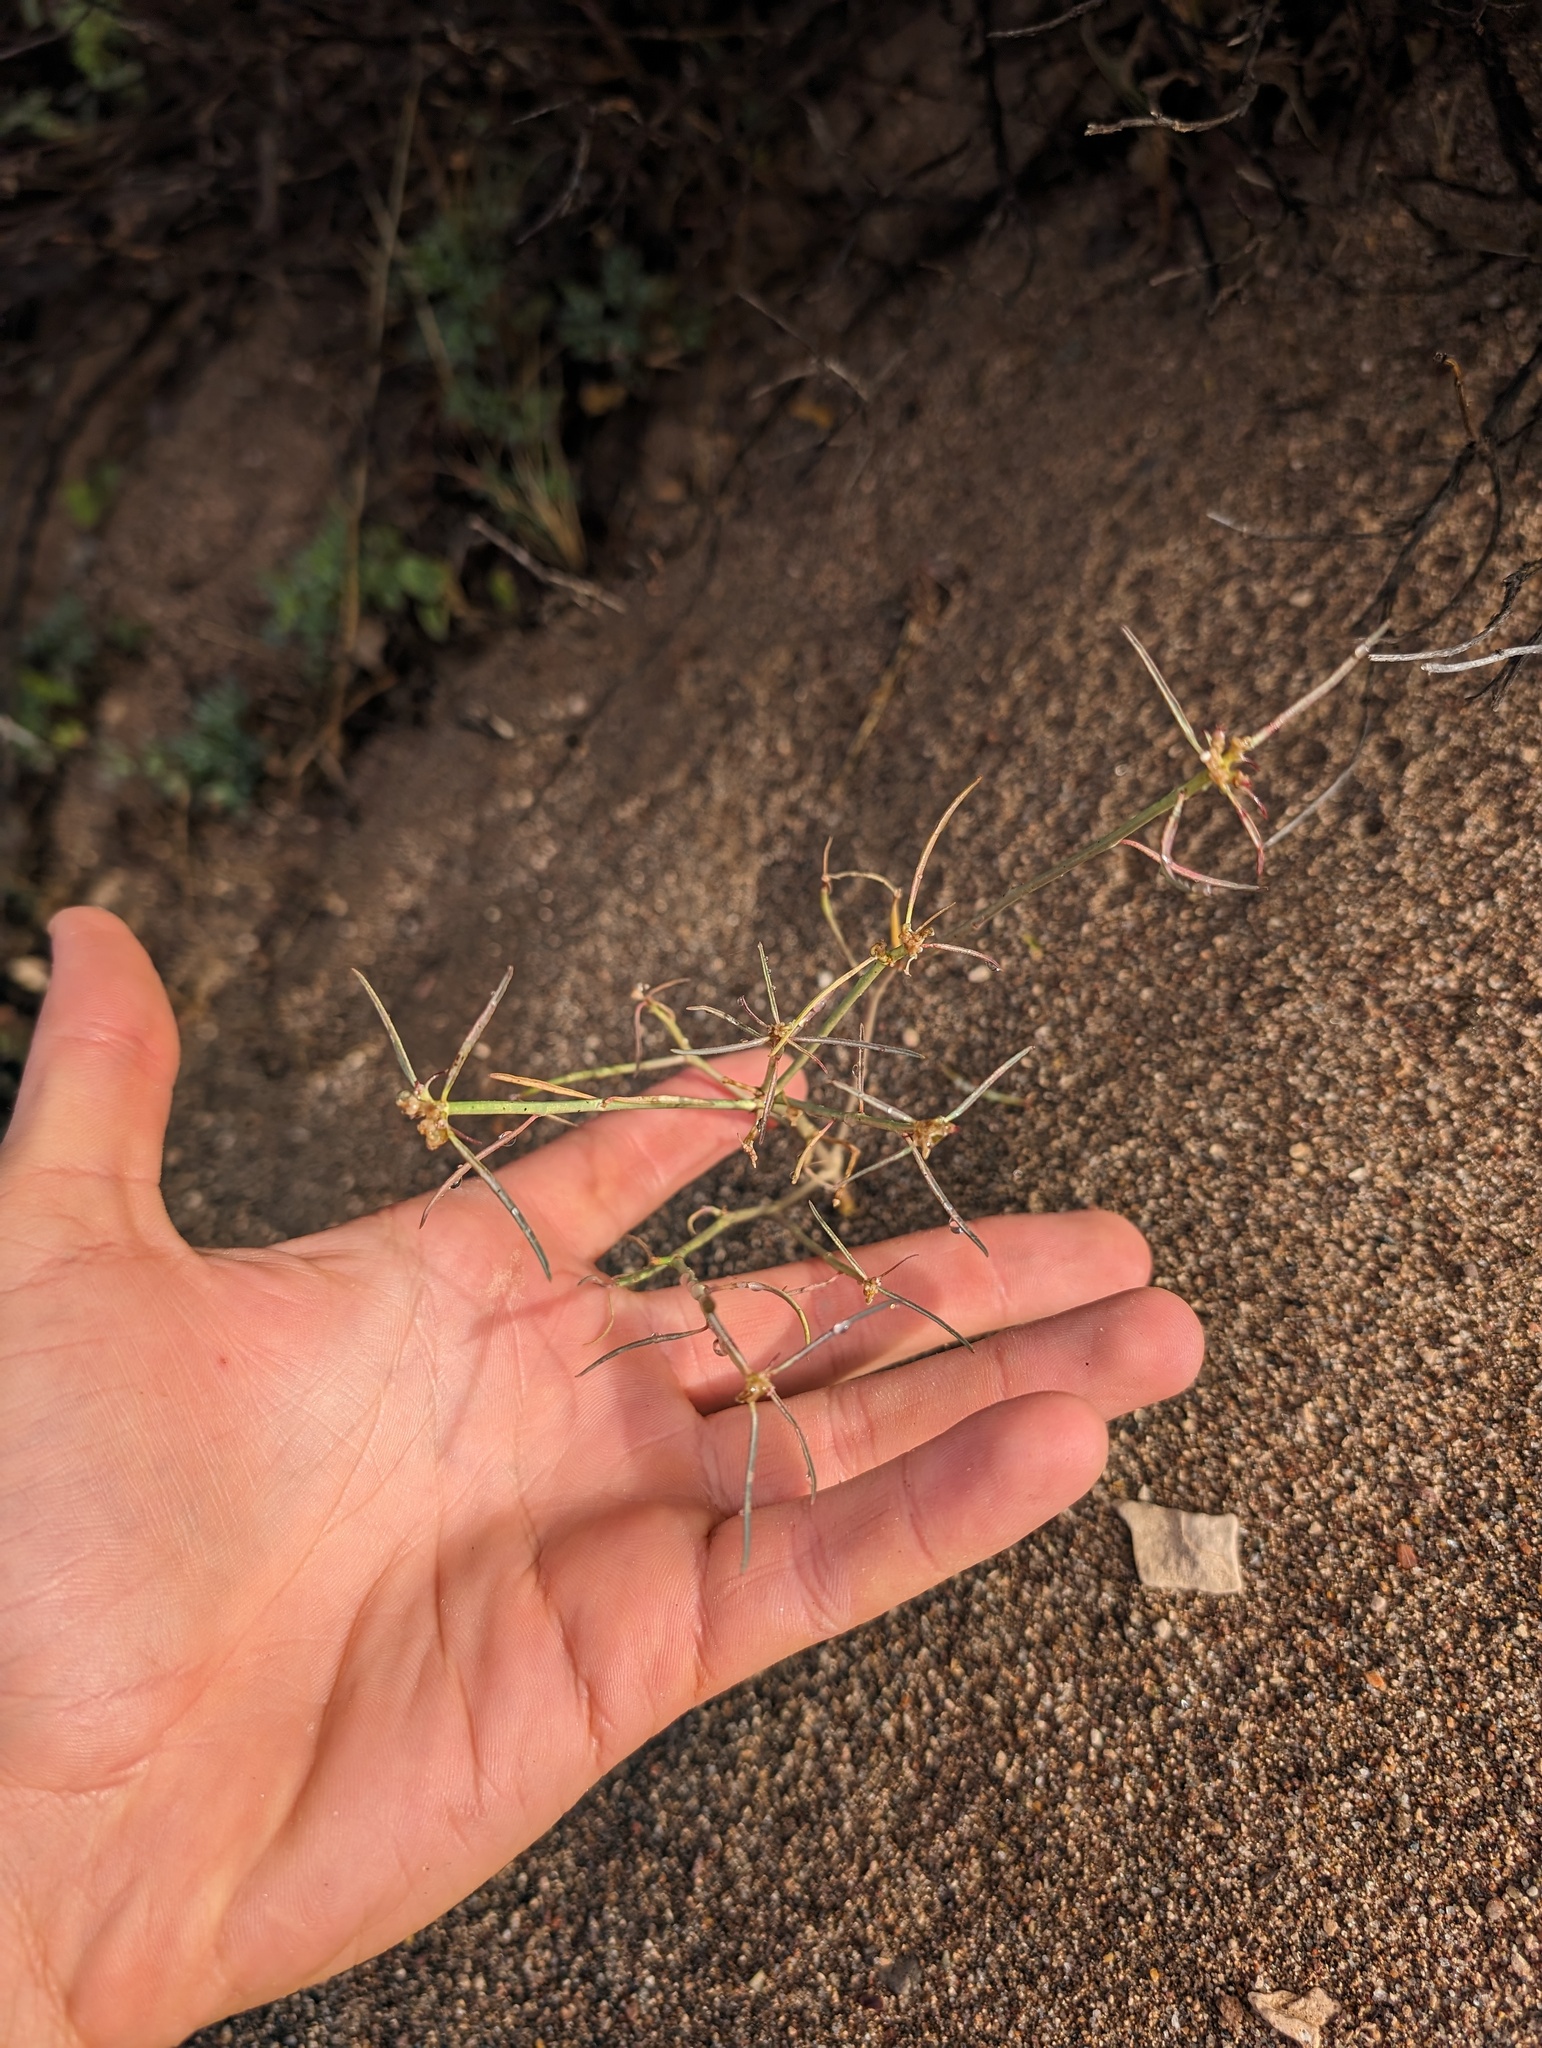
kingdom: Plantae
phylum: Tracheophyta
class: Magnoliopsida
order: Malpighiales
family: Euphorbiaceae
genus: Euphorbia
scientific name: Euphorbia eriantha
